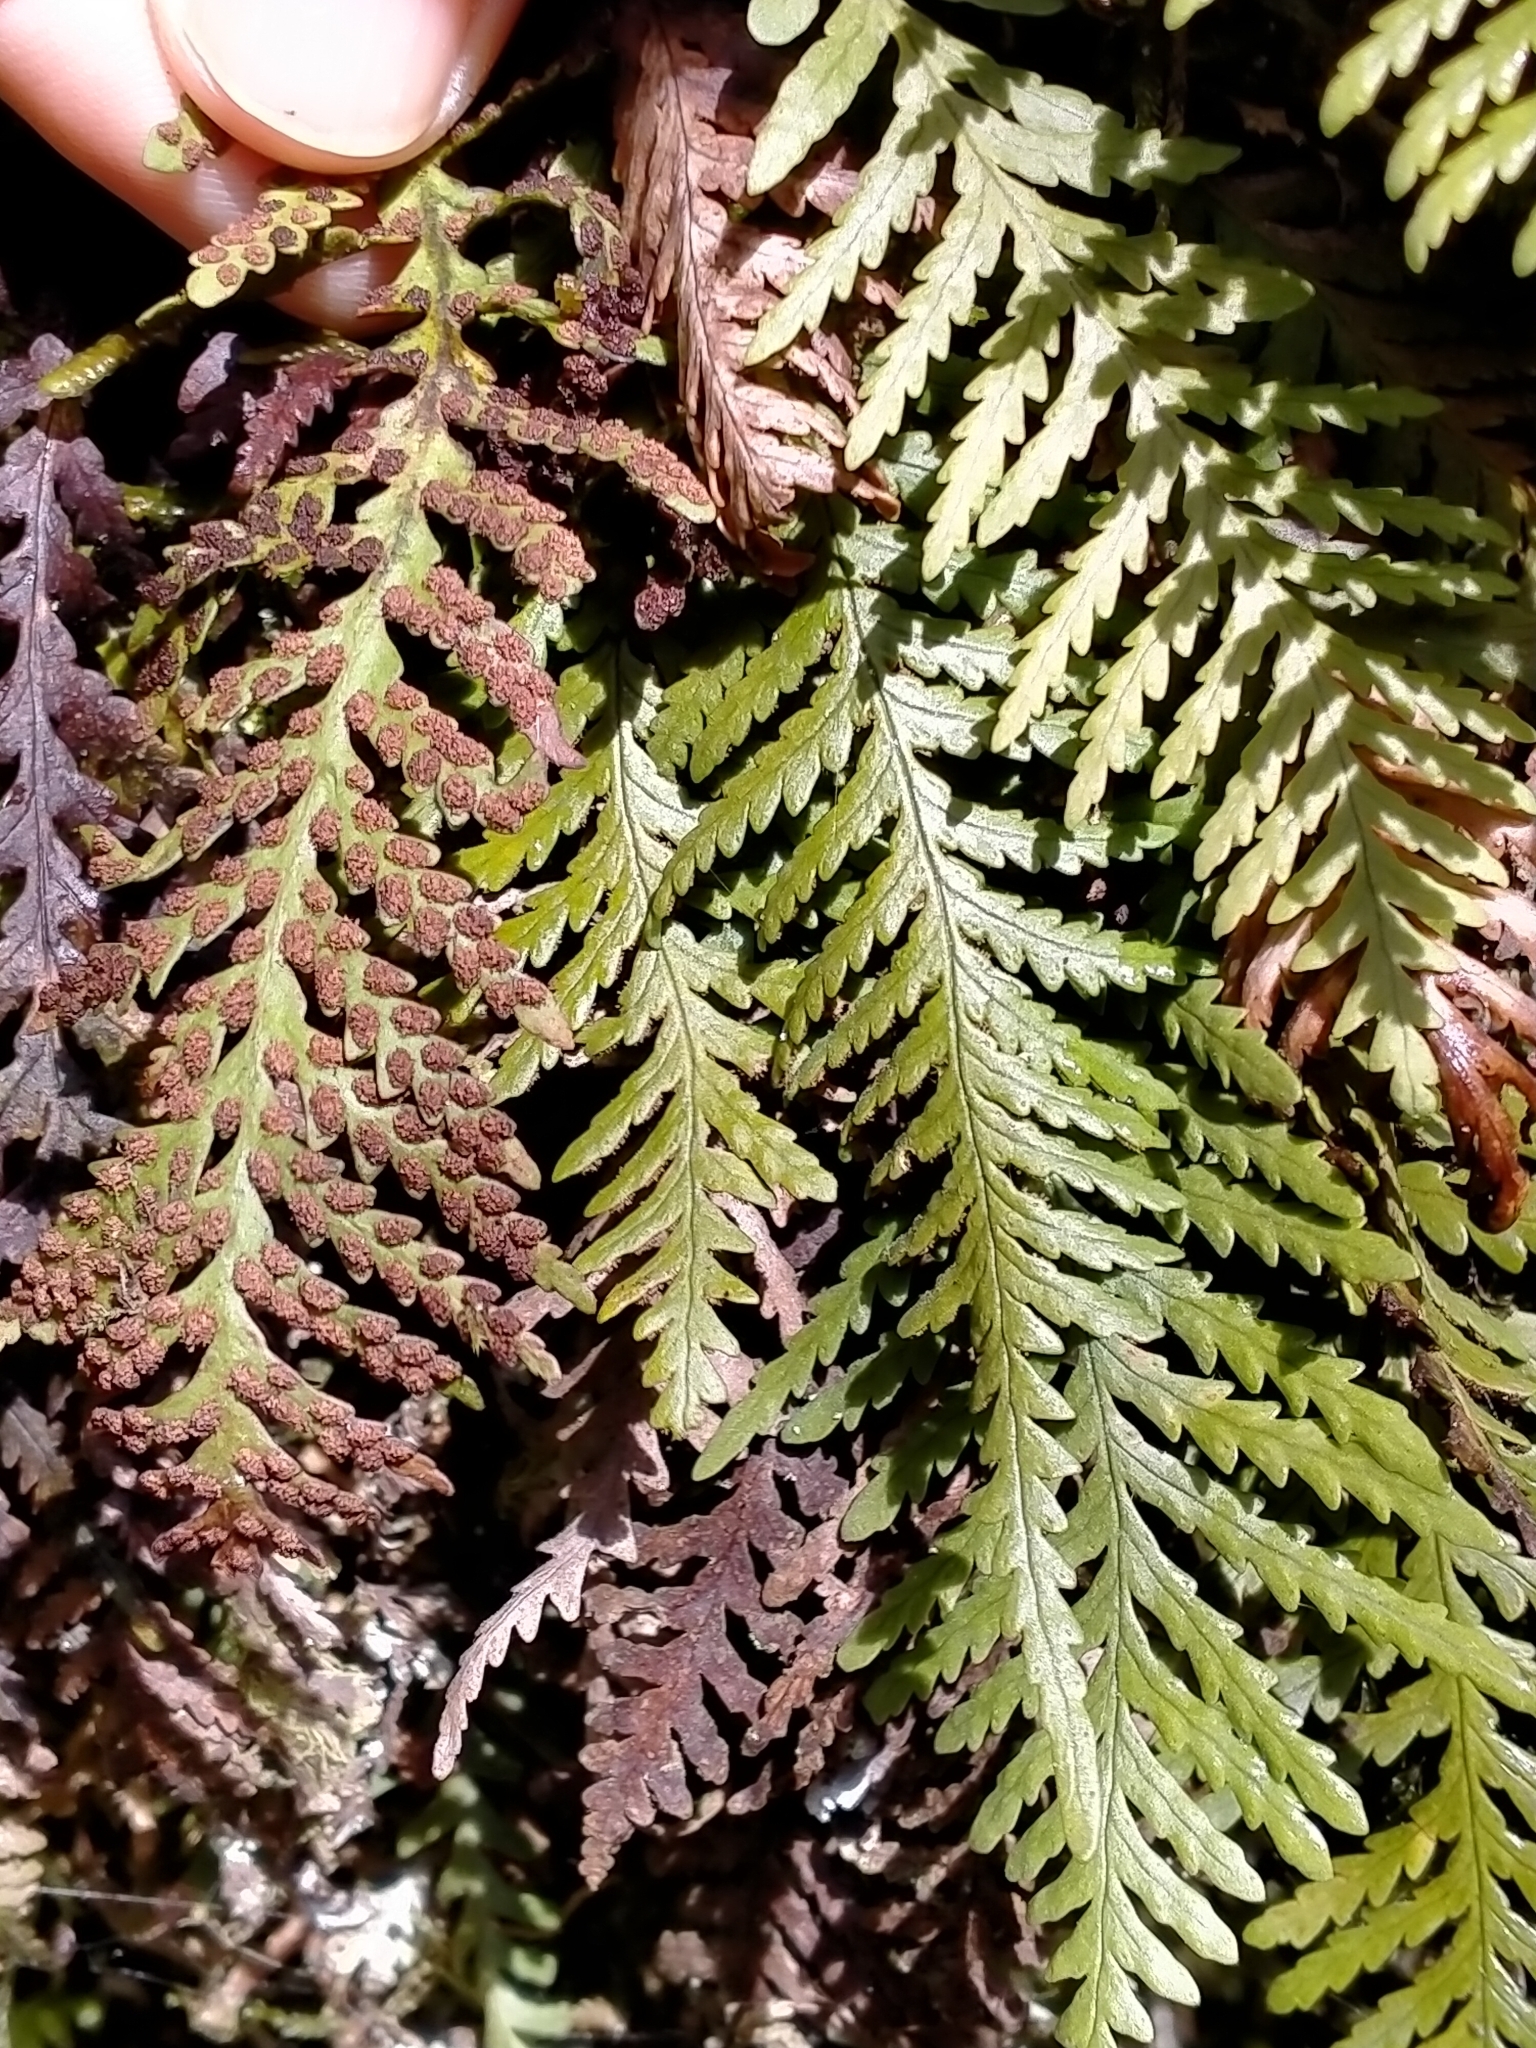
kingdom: Plantae
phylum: Tracheophyta
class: Polypodiopsida
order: Polypodiales
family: Polypodiaceae
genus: Notogrammitis
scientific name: Notogrammitis heterophylla
